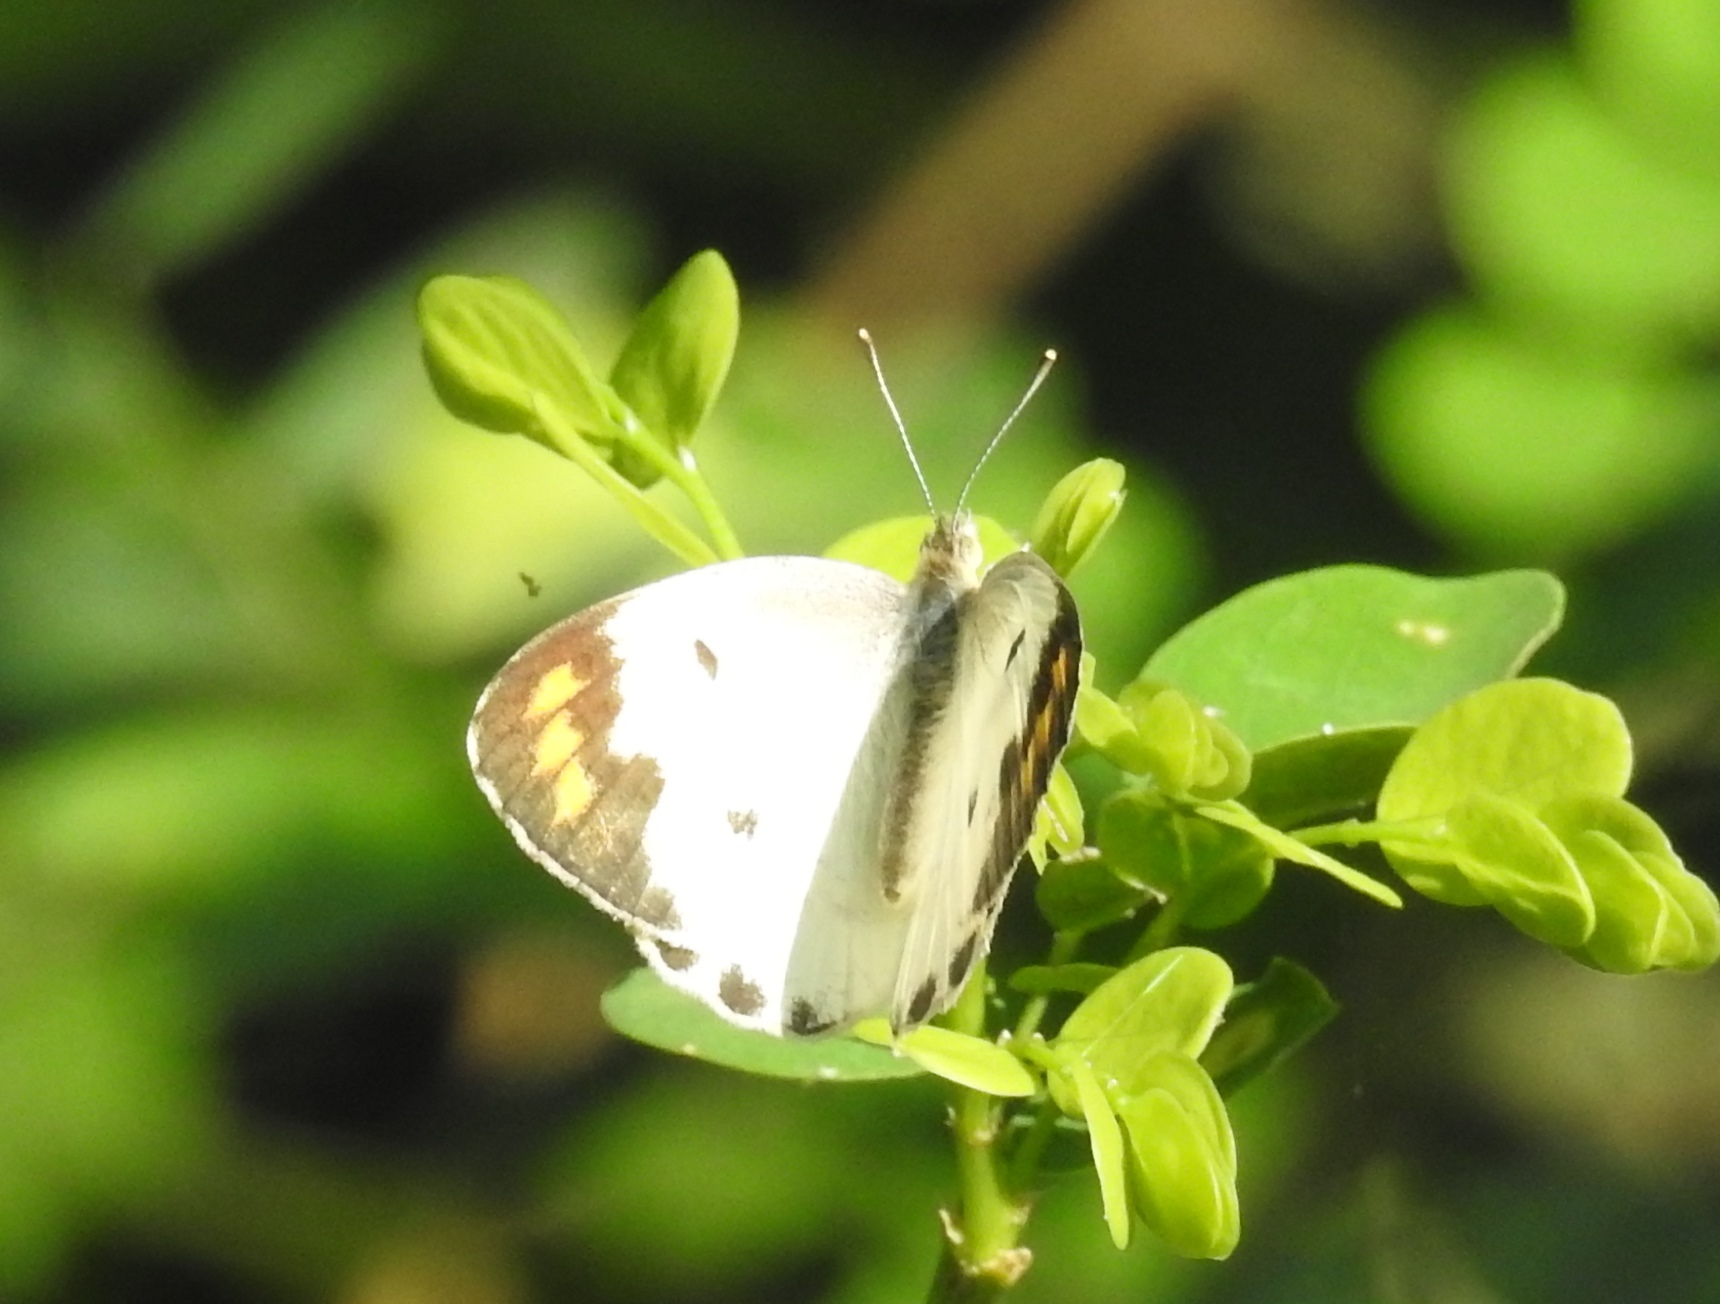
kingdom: Animalia
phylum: Arthropoda
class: Insecta
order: Lepidoptera
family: Pieridae
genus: Colotis
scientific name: Colotis aurora
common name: Plain orange-tip
